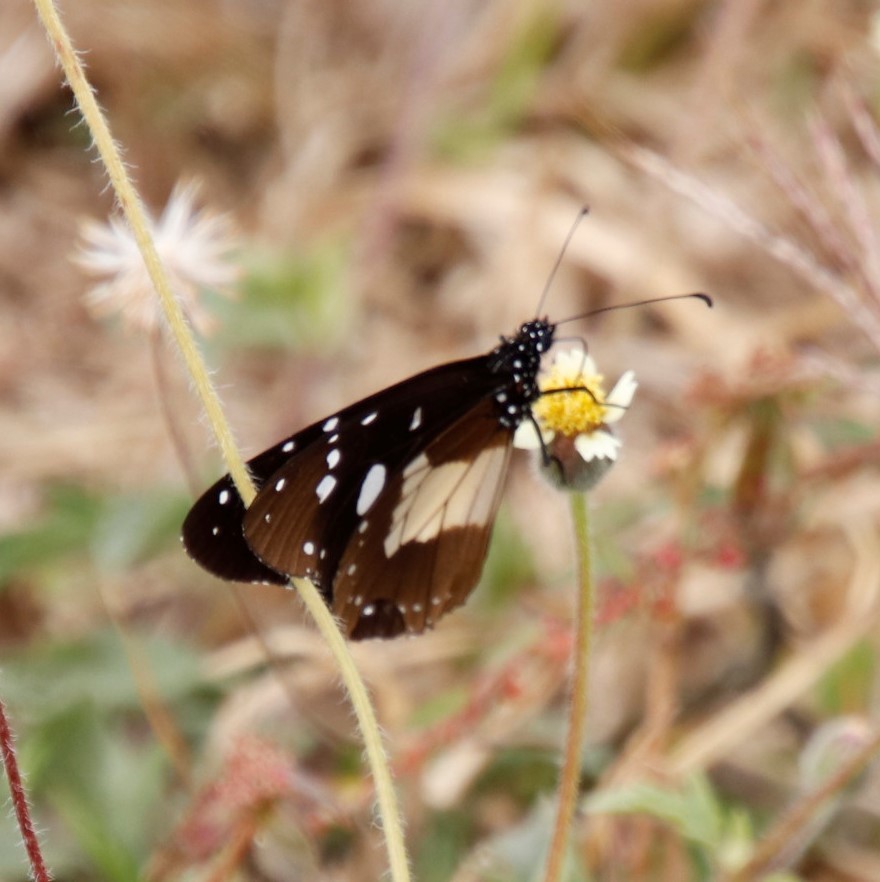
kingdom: Animalia
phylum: Arthropoda
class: Insecta
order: Lepidoptera
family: Nymphalidae
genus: Junonia
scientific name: Junonia oenone
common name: Dark blue pansy
